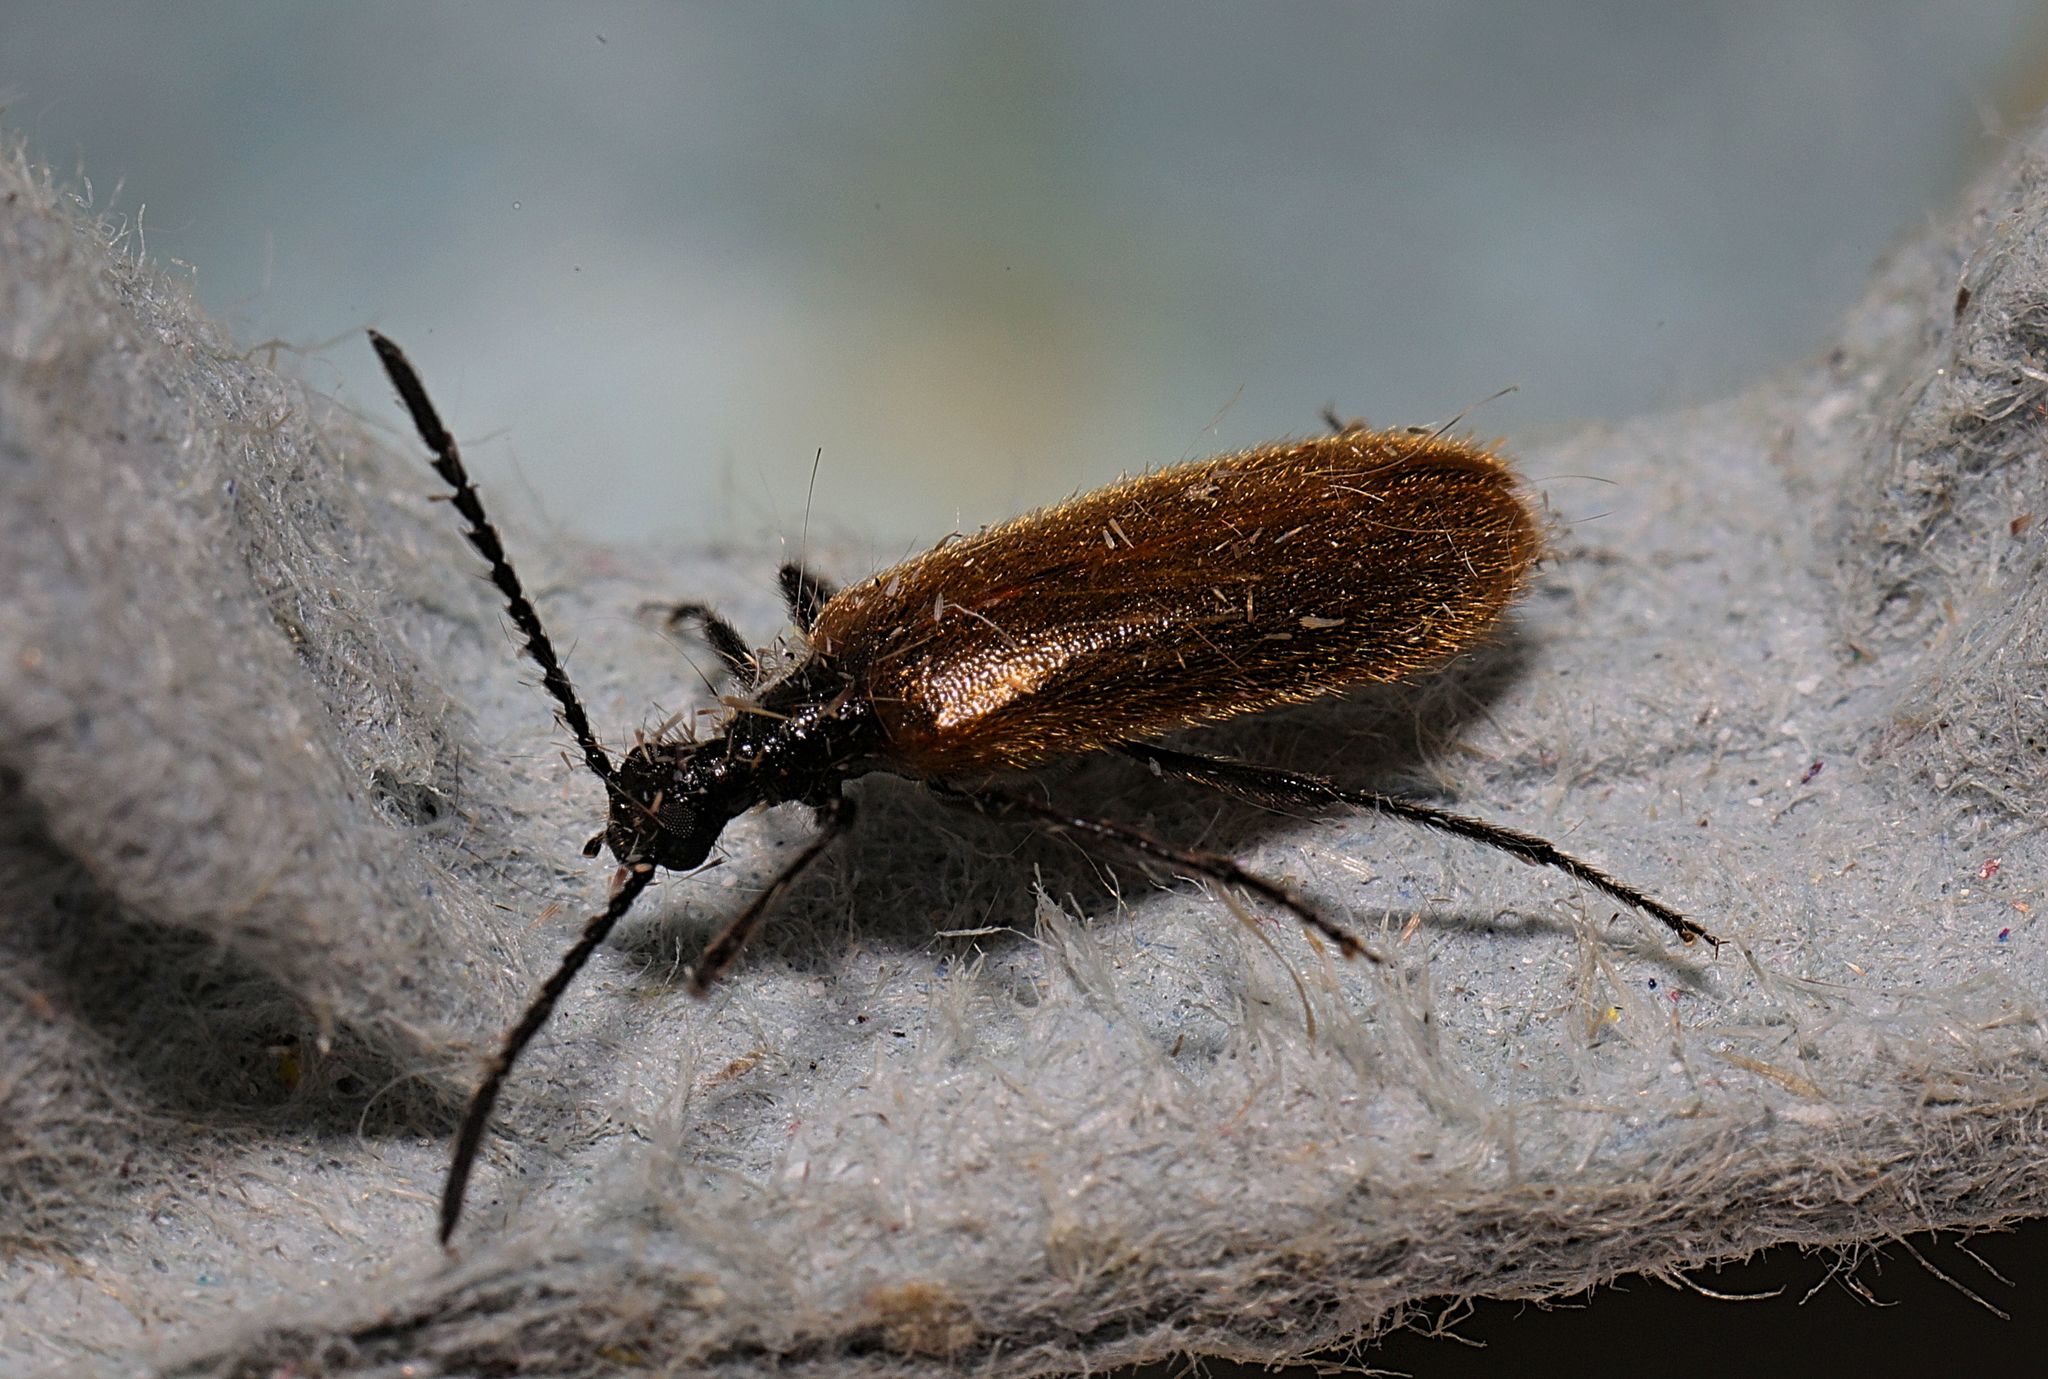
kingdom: Animalia
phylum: Arthropoda
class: Insecta
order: Coleoptera
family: Tenebrionidae
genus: Lagria
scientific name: Lagria hirta
